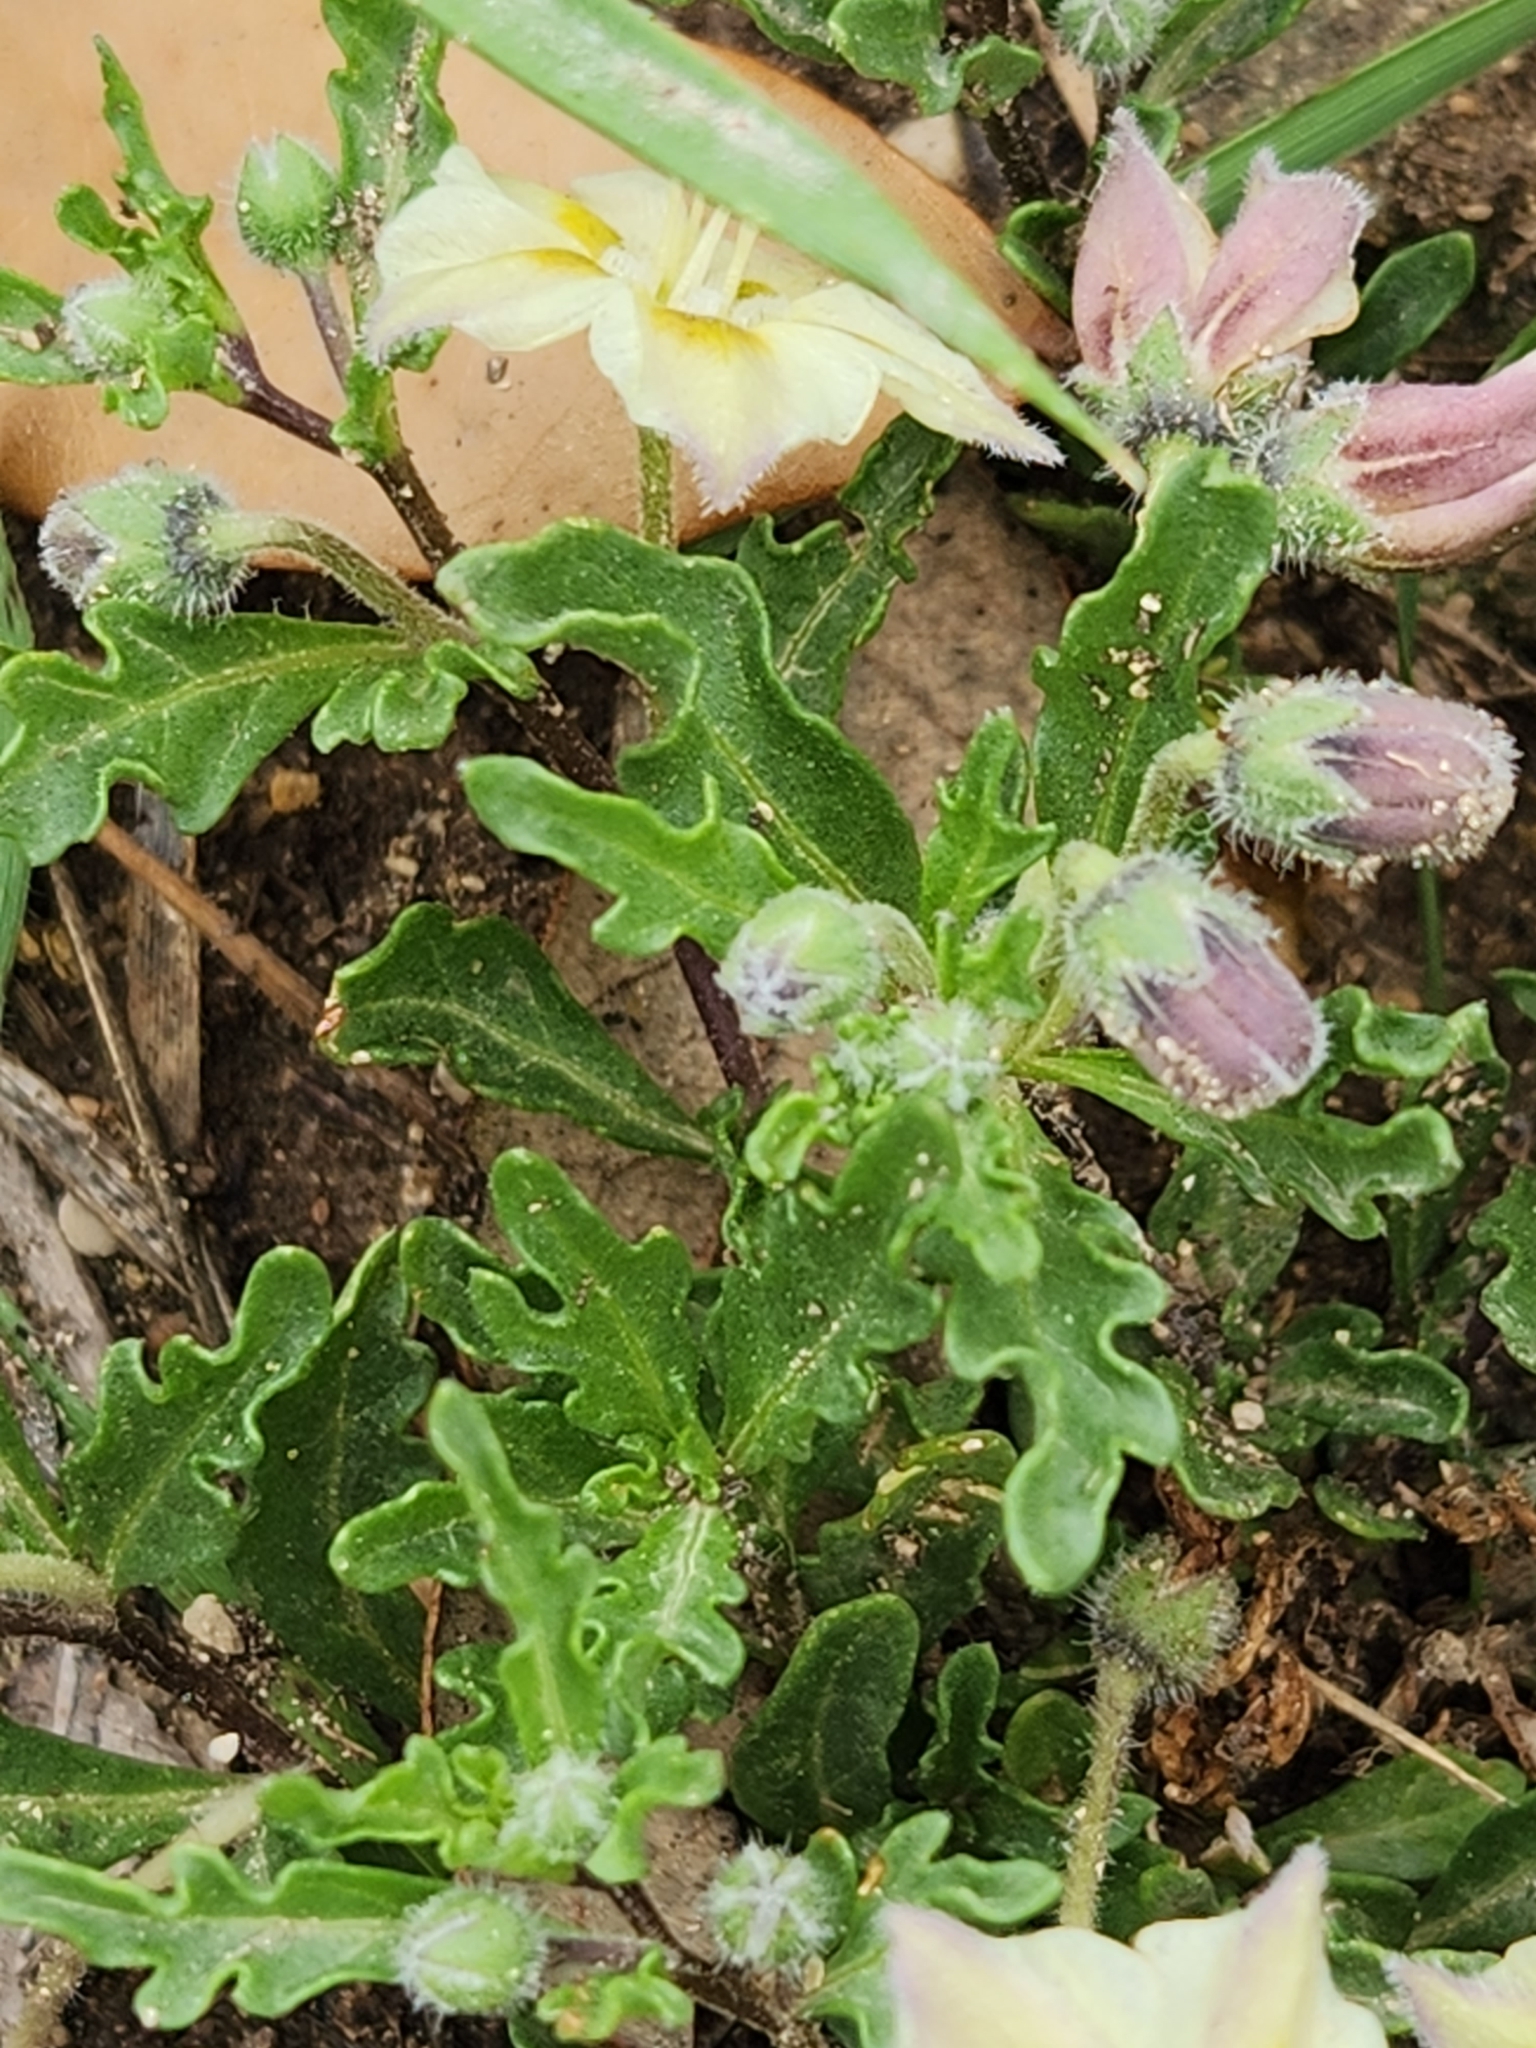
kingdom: Plantae
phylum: Tracheophyta
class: Magnoliopsida
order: Solanales
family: Solanaceae
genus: Chamaesaracha
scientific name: Chamaesaracha edwardsiana
